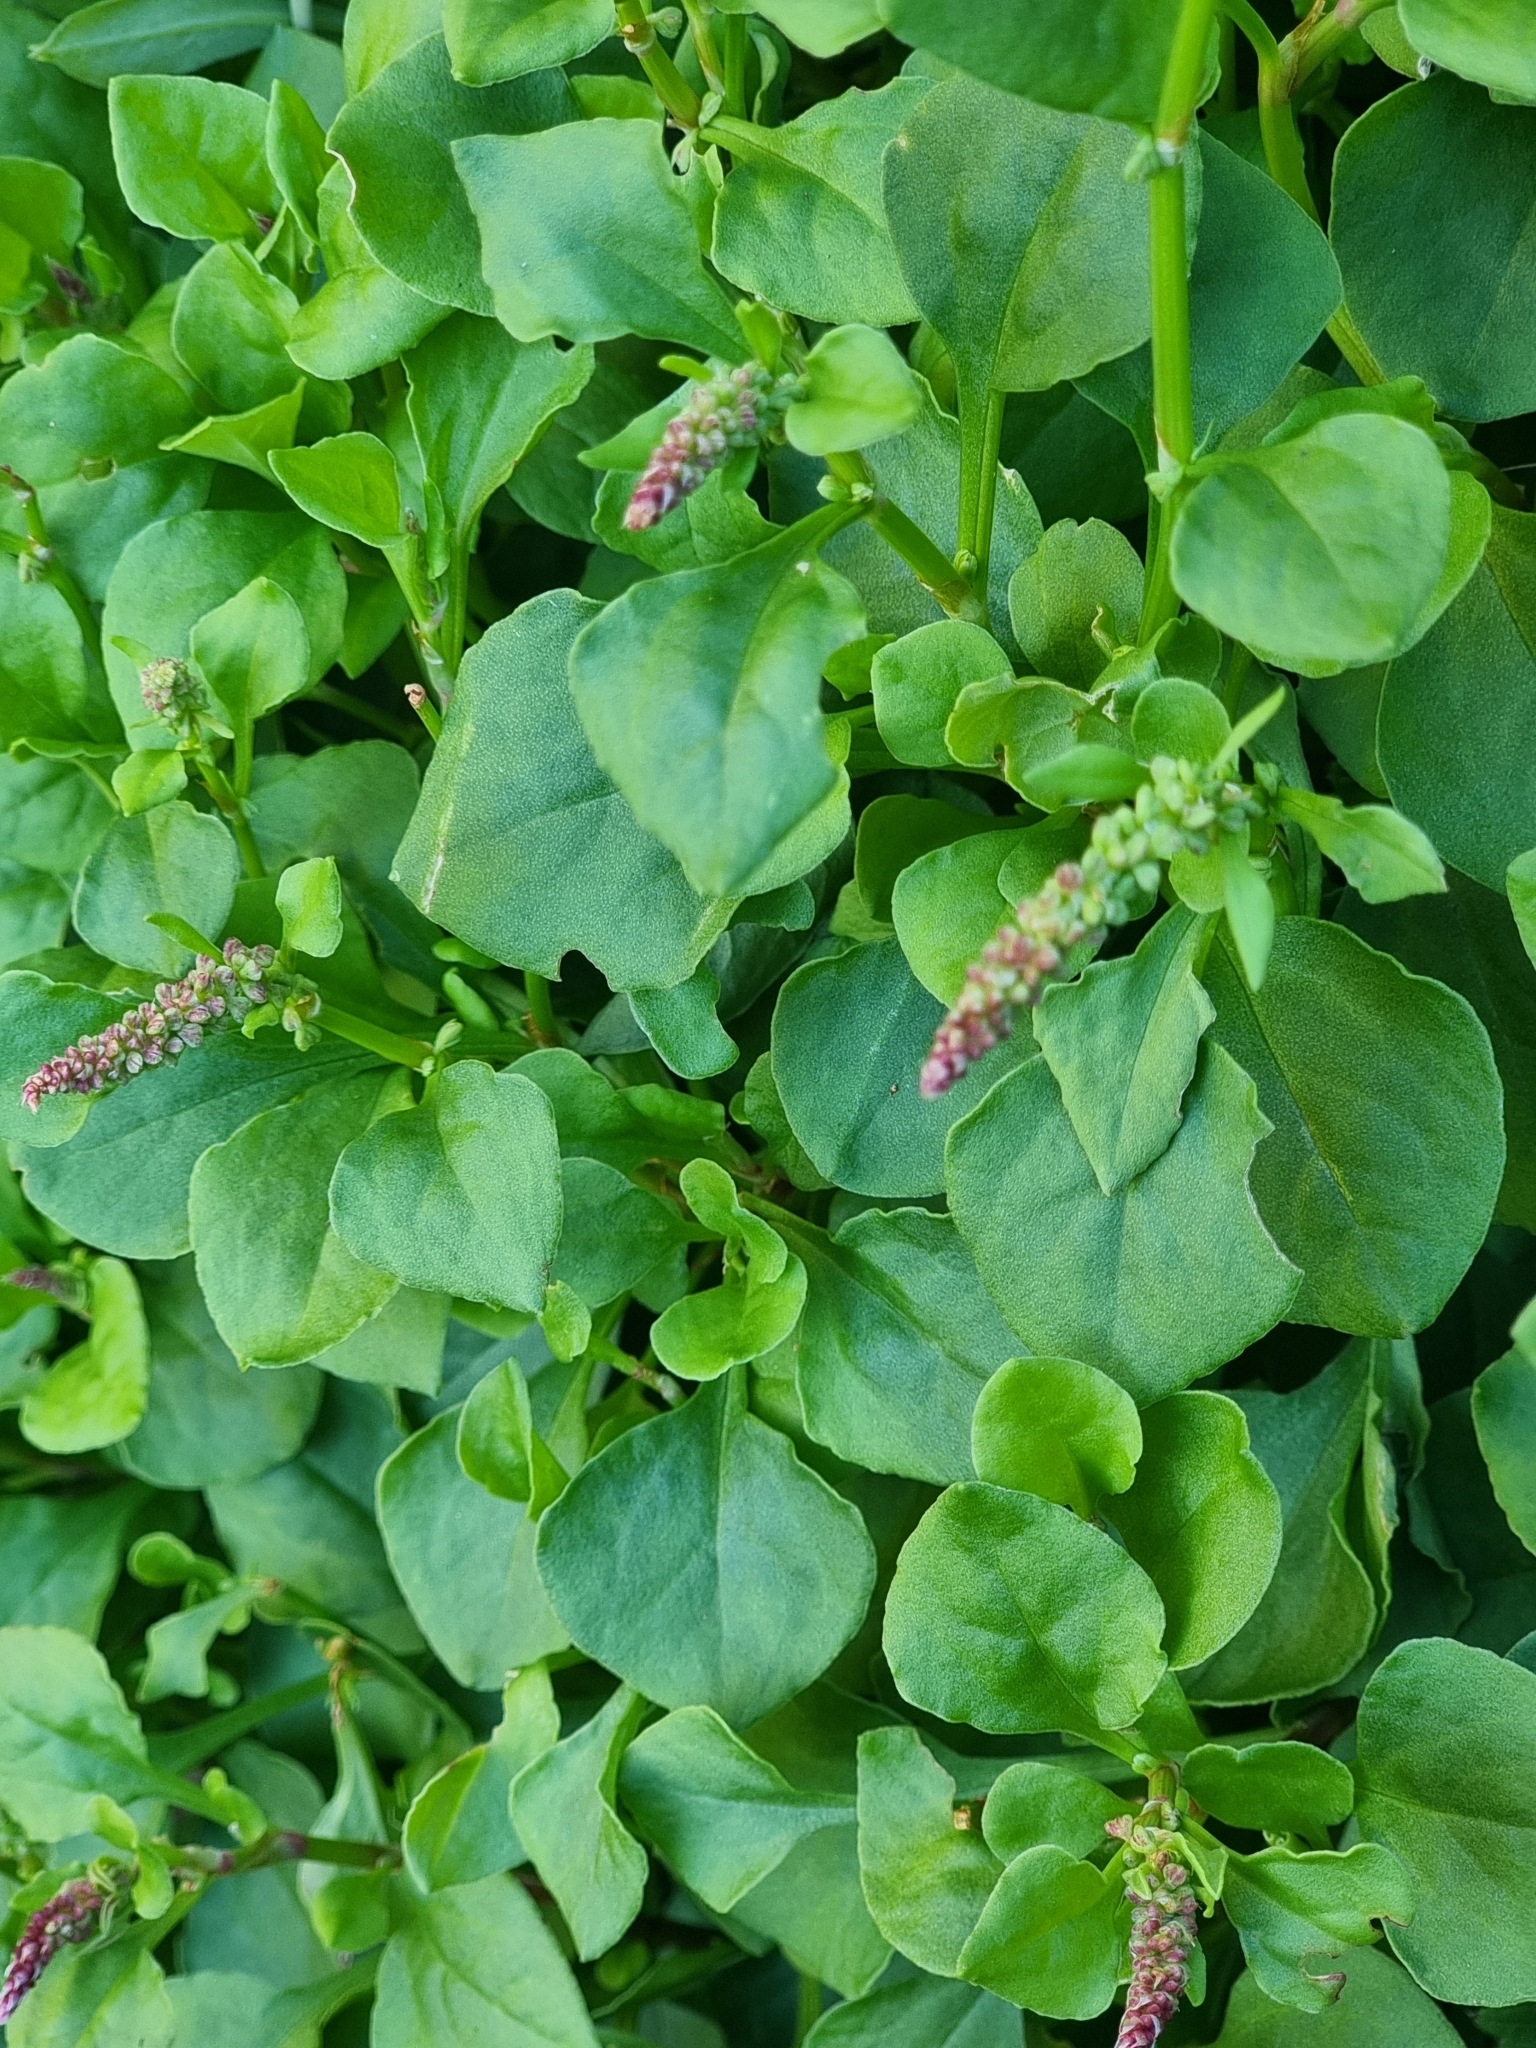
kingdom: Plantae
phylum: Tracheophyta
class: Magnoliopsida
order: Caryophyllales
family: Polygonaceae
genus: Rumex
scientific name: Rumex bucephalophorus
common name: Red dock
